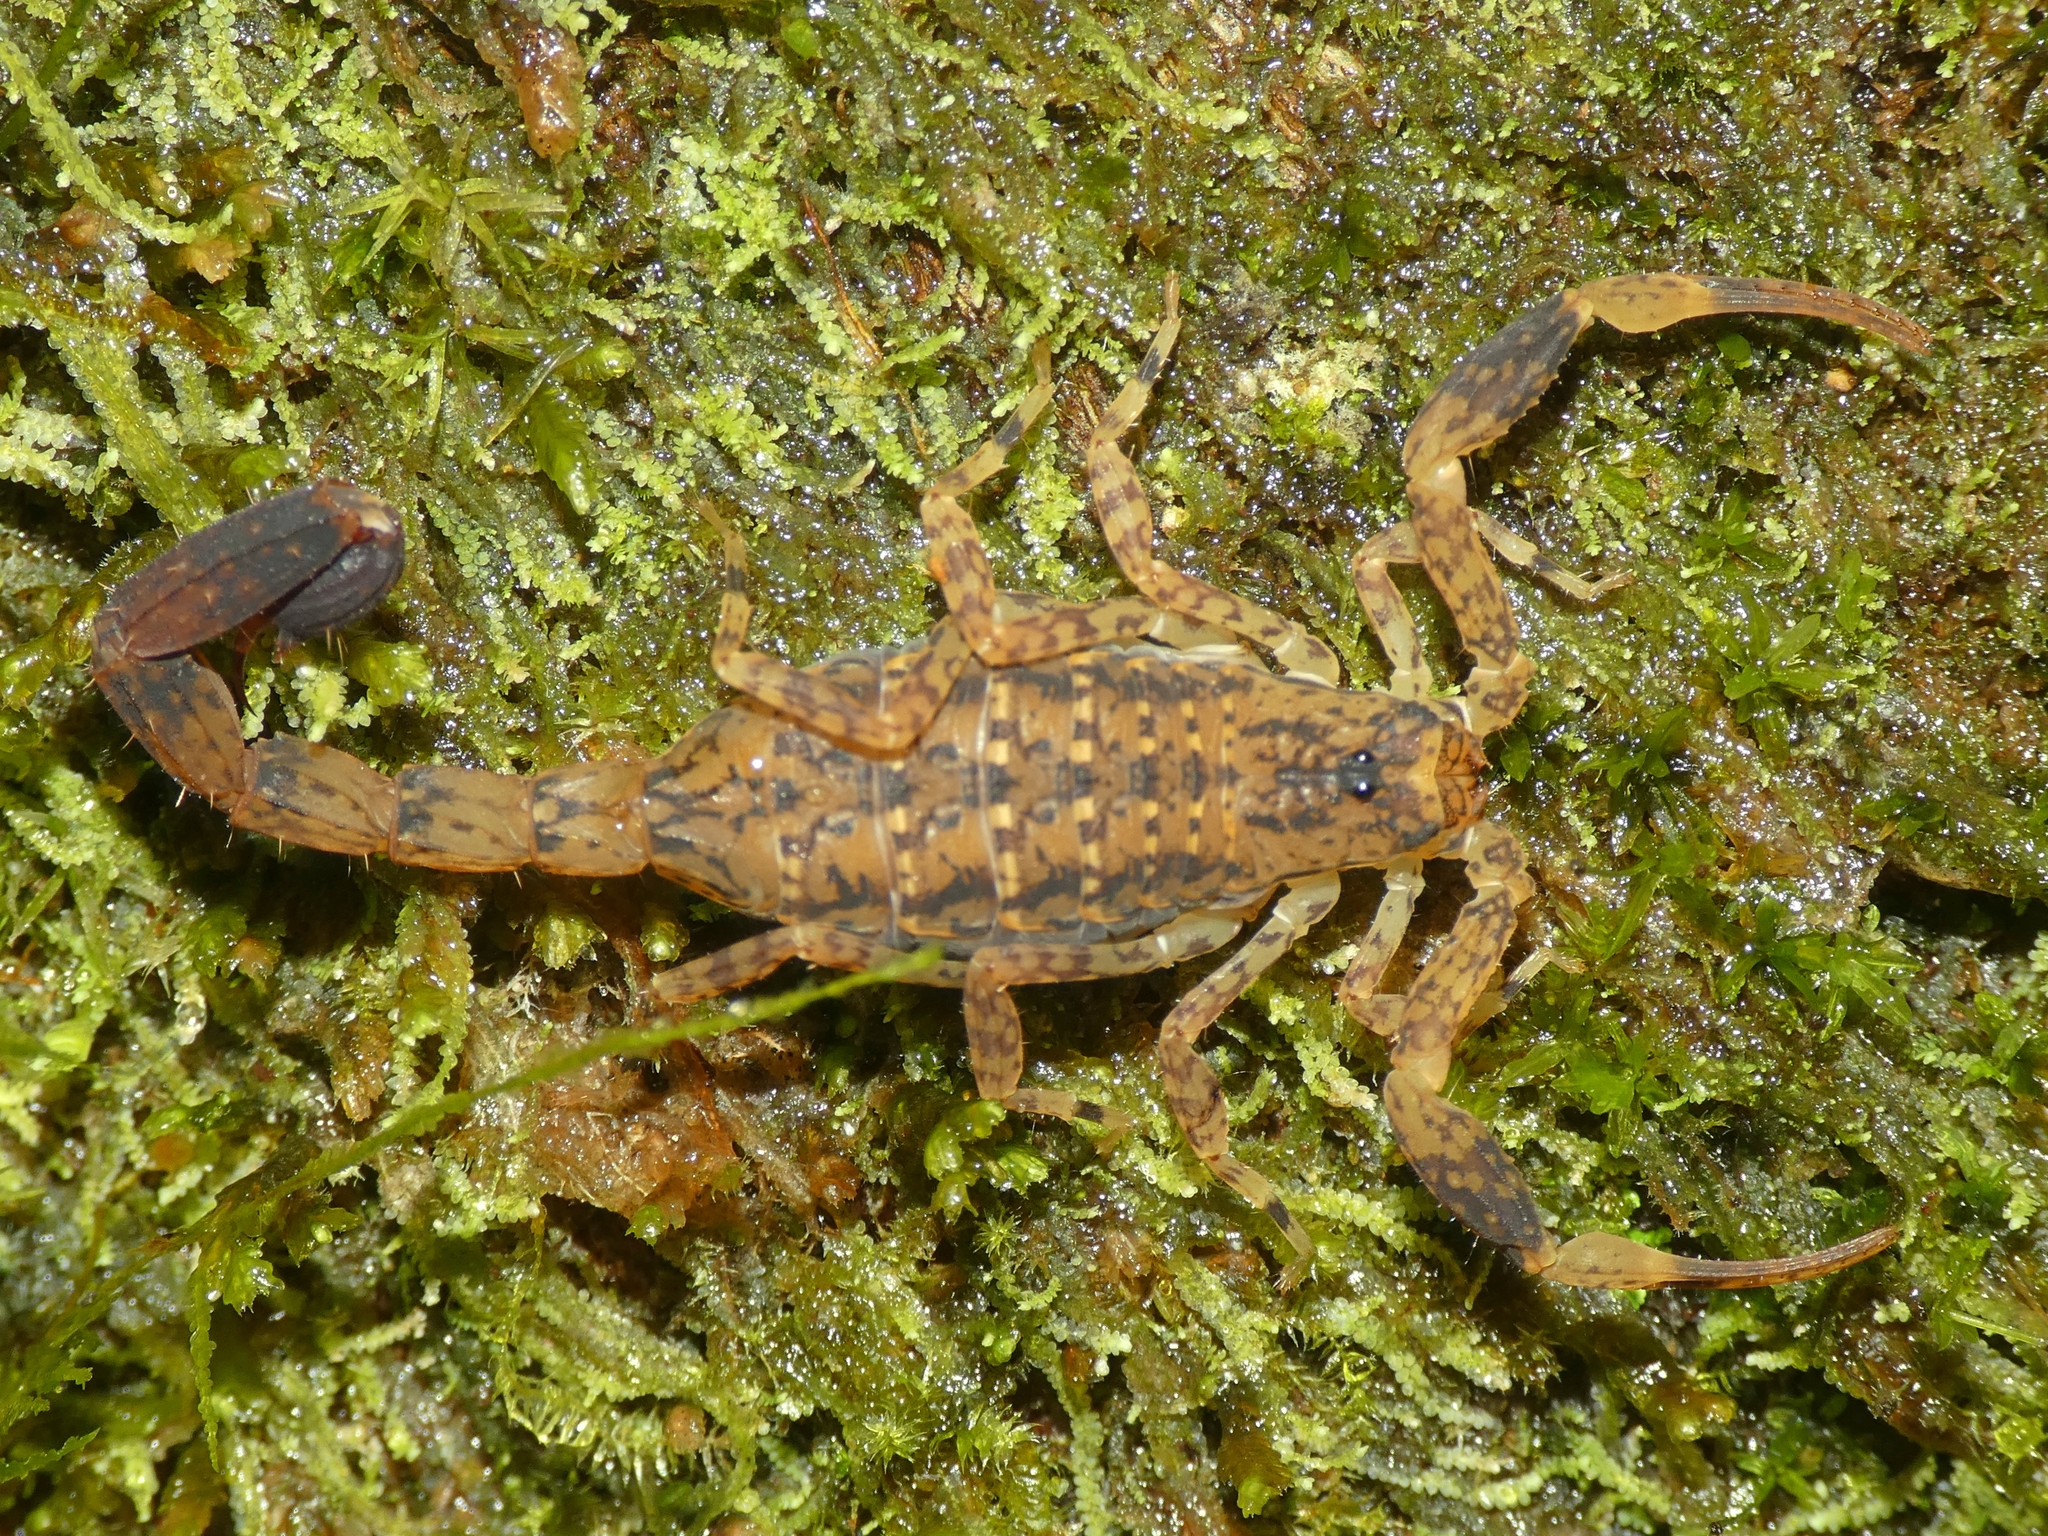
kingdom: Animalia
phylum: Arthropoda
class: Arachnida
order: Scorpiones
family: Buthidae
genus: Lychas
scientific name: Lychas variatus
